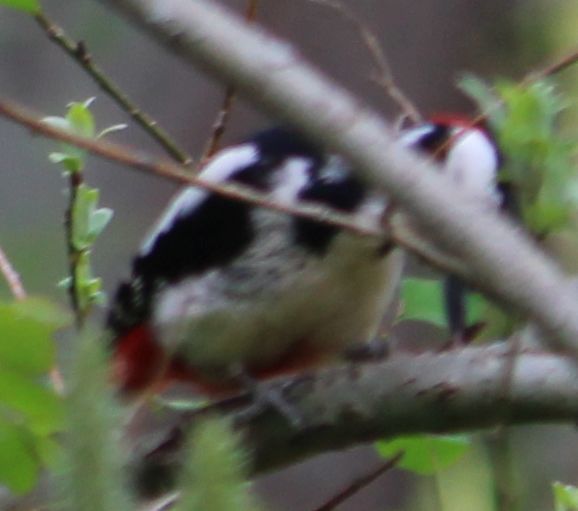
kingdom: Animalia
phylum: Chordata
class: Aves
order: Piciformes
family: Picidae
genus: Dendrocopos
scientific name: Dendrocopos major
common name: Great spotted woodpecker
